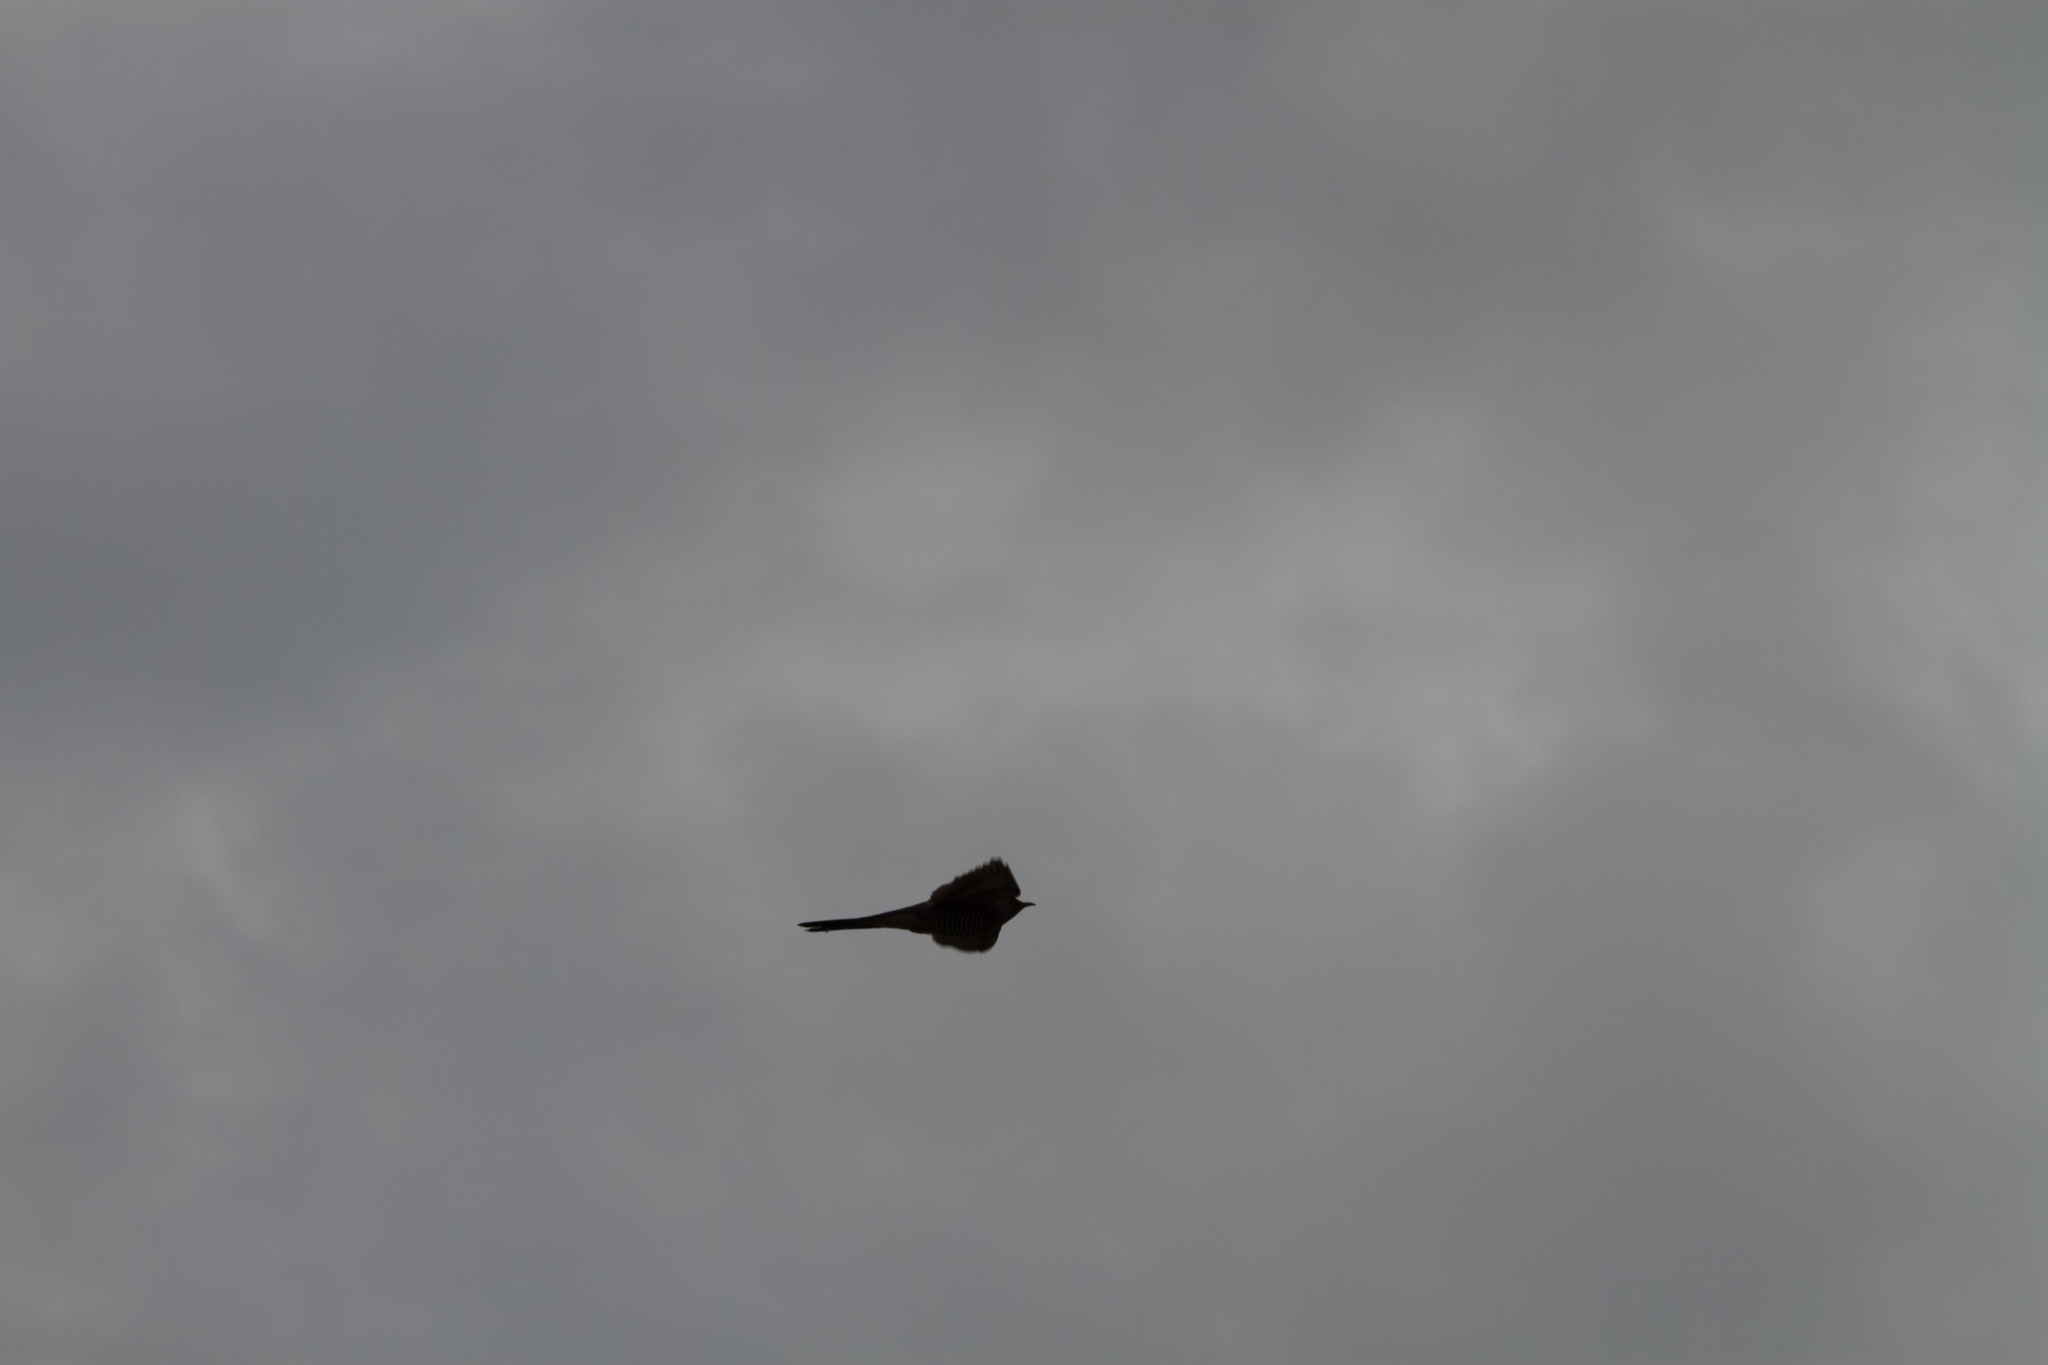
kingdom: Animalia
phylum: Chordata
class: Aves
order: Cuculiformes
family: Cuculidae
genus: Cuculus
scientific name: Cuculus canorus
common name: Common cuckoo
